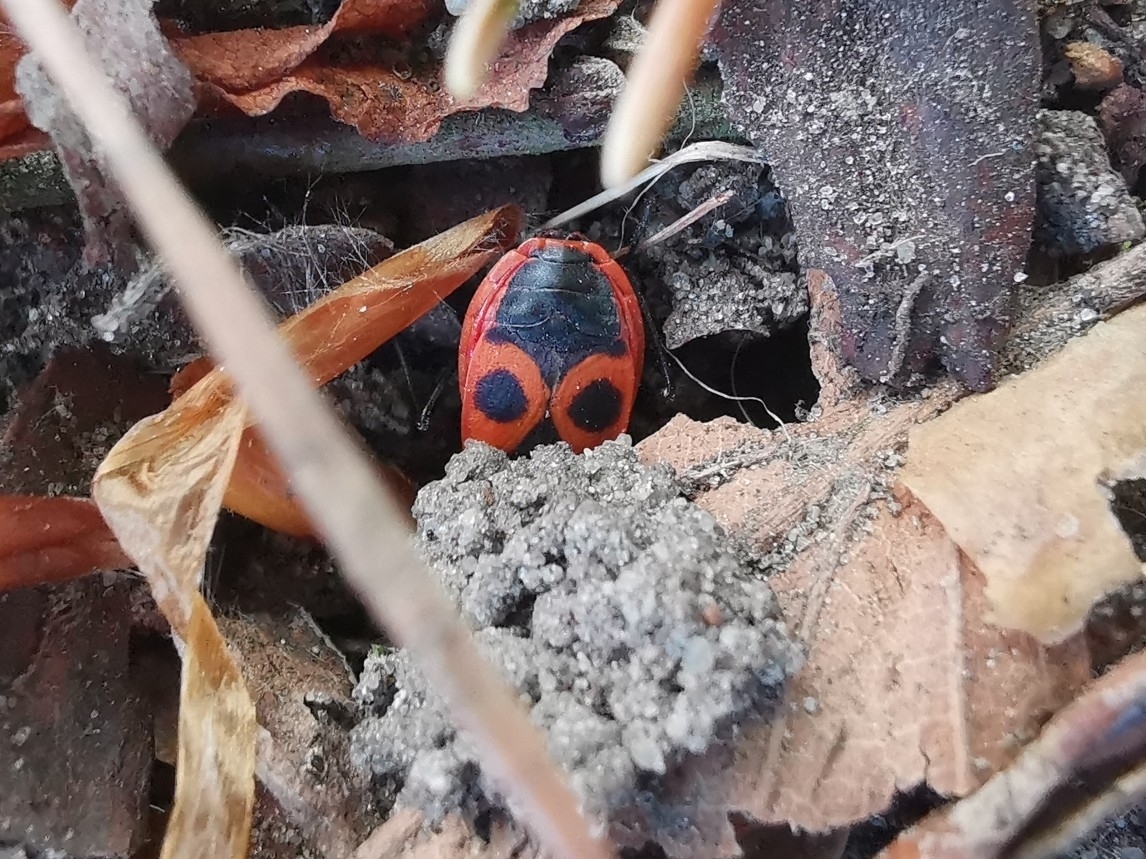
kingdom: Animalia
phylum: Arthropoda
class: Insecta
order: Hemiptera
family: Pyrrhocoridae
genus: Pyrrhocoris
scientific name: Pyrrhocoris apterus
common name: Firebug
